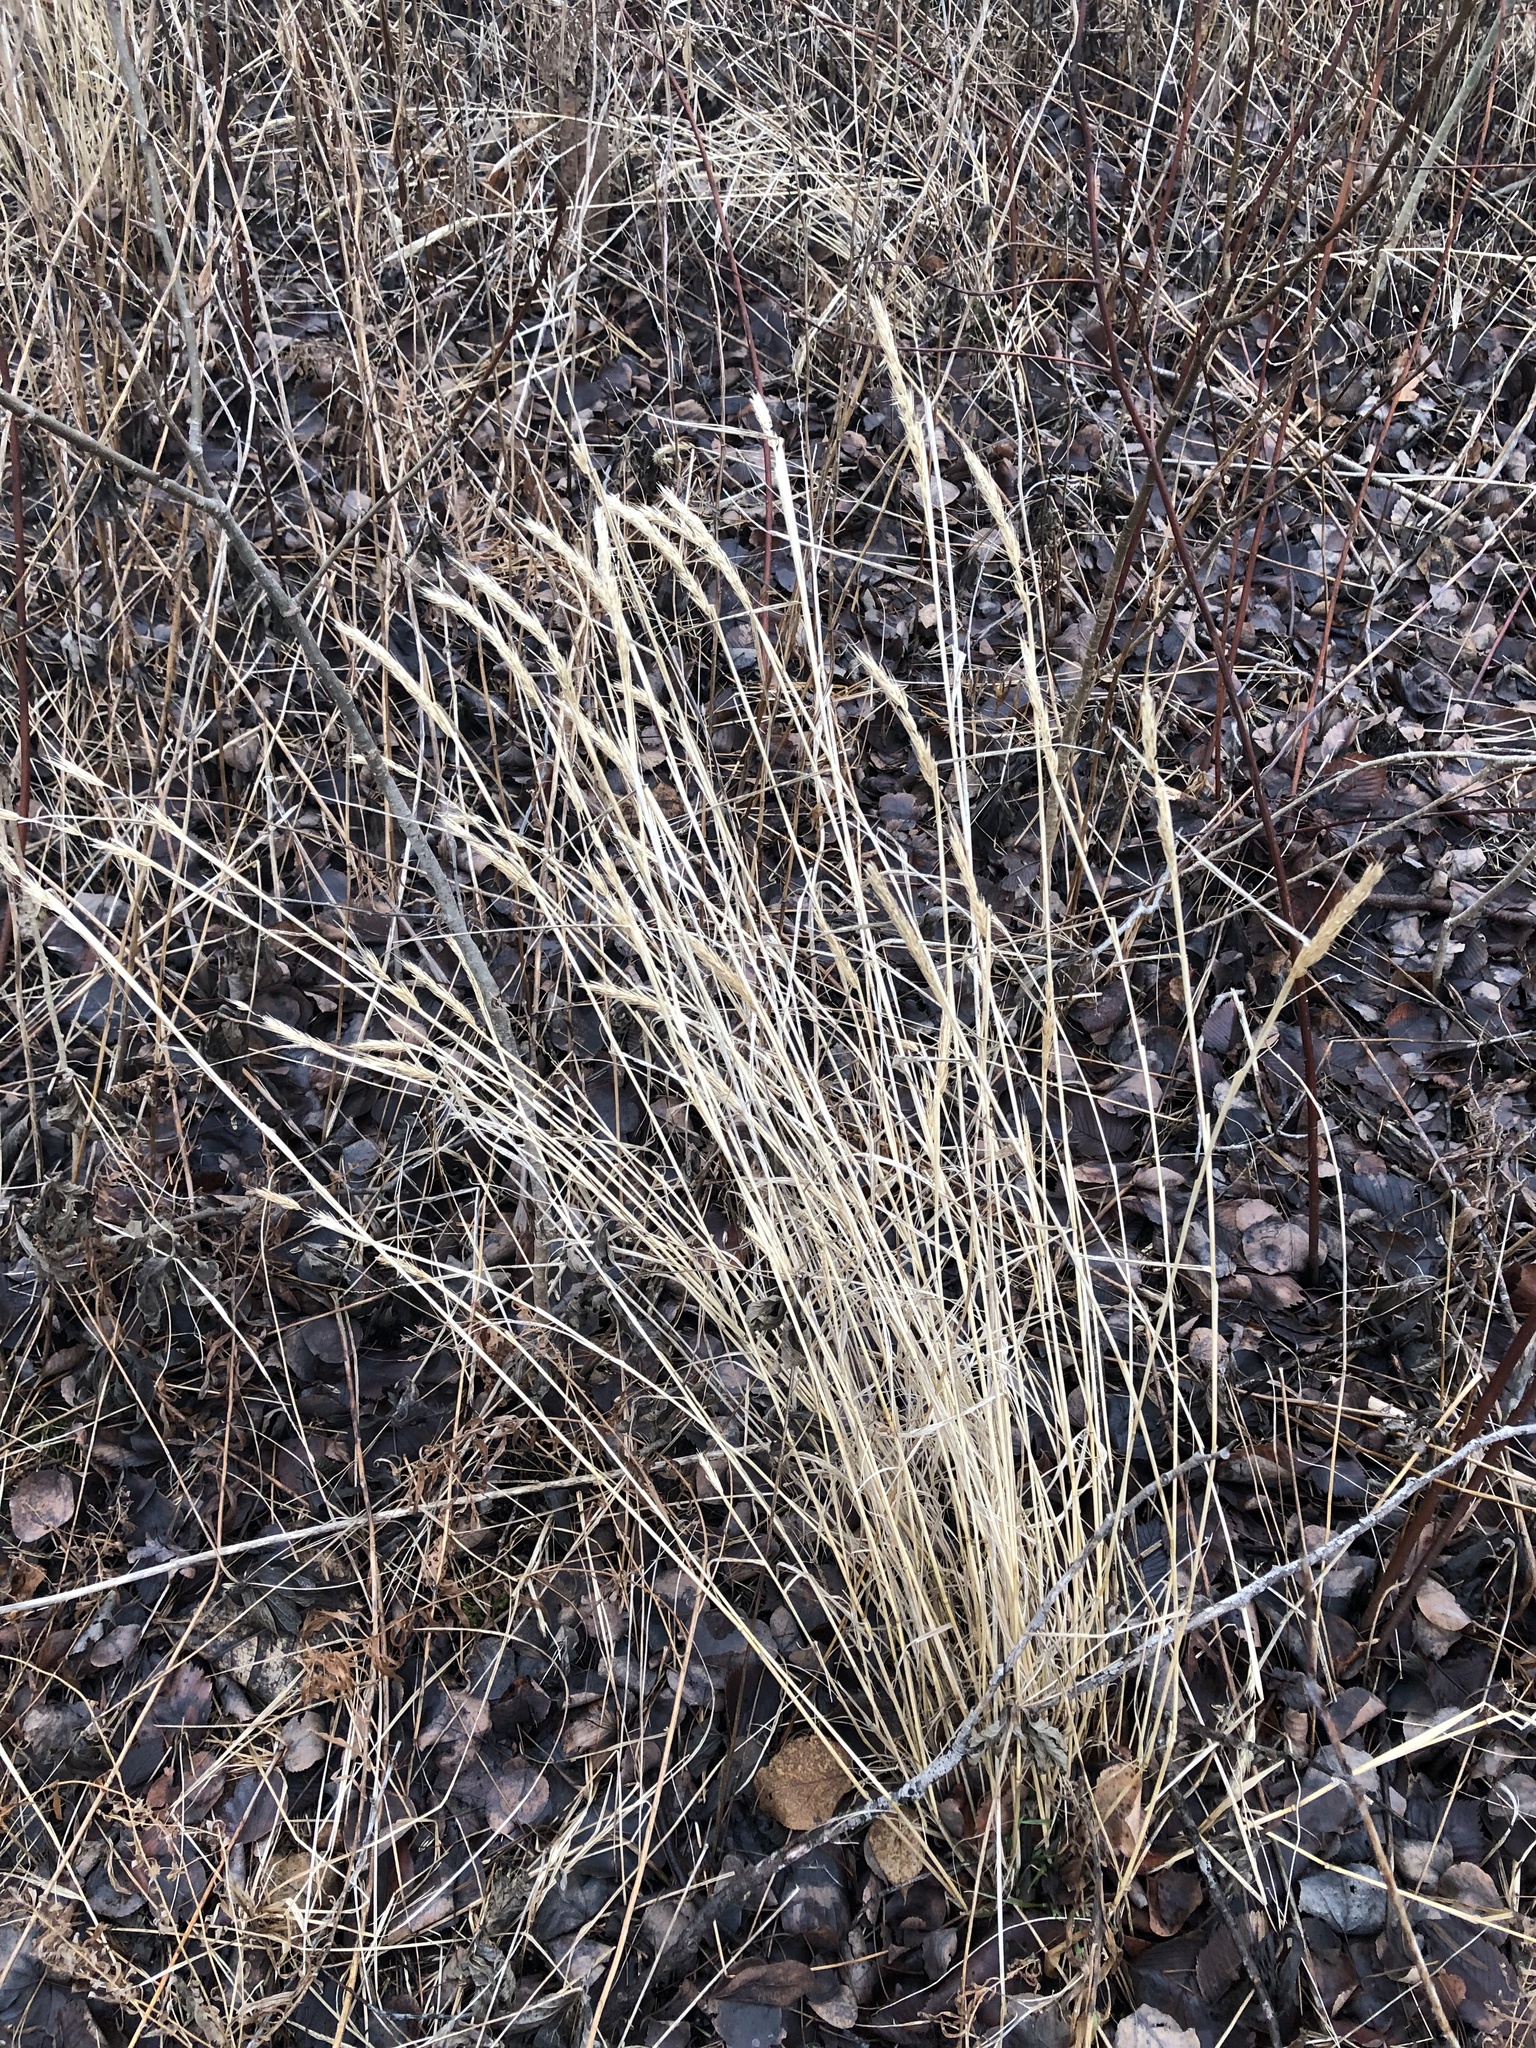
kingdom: Plantae
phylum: Tracheophyta
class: Liliopsida
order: Poales
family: Poaceae
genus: Elymus
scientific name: Elymus virginicus
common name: Common eastern wildrye
